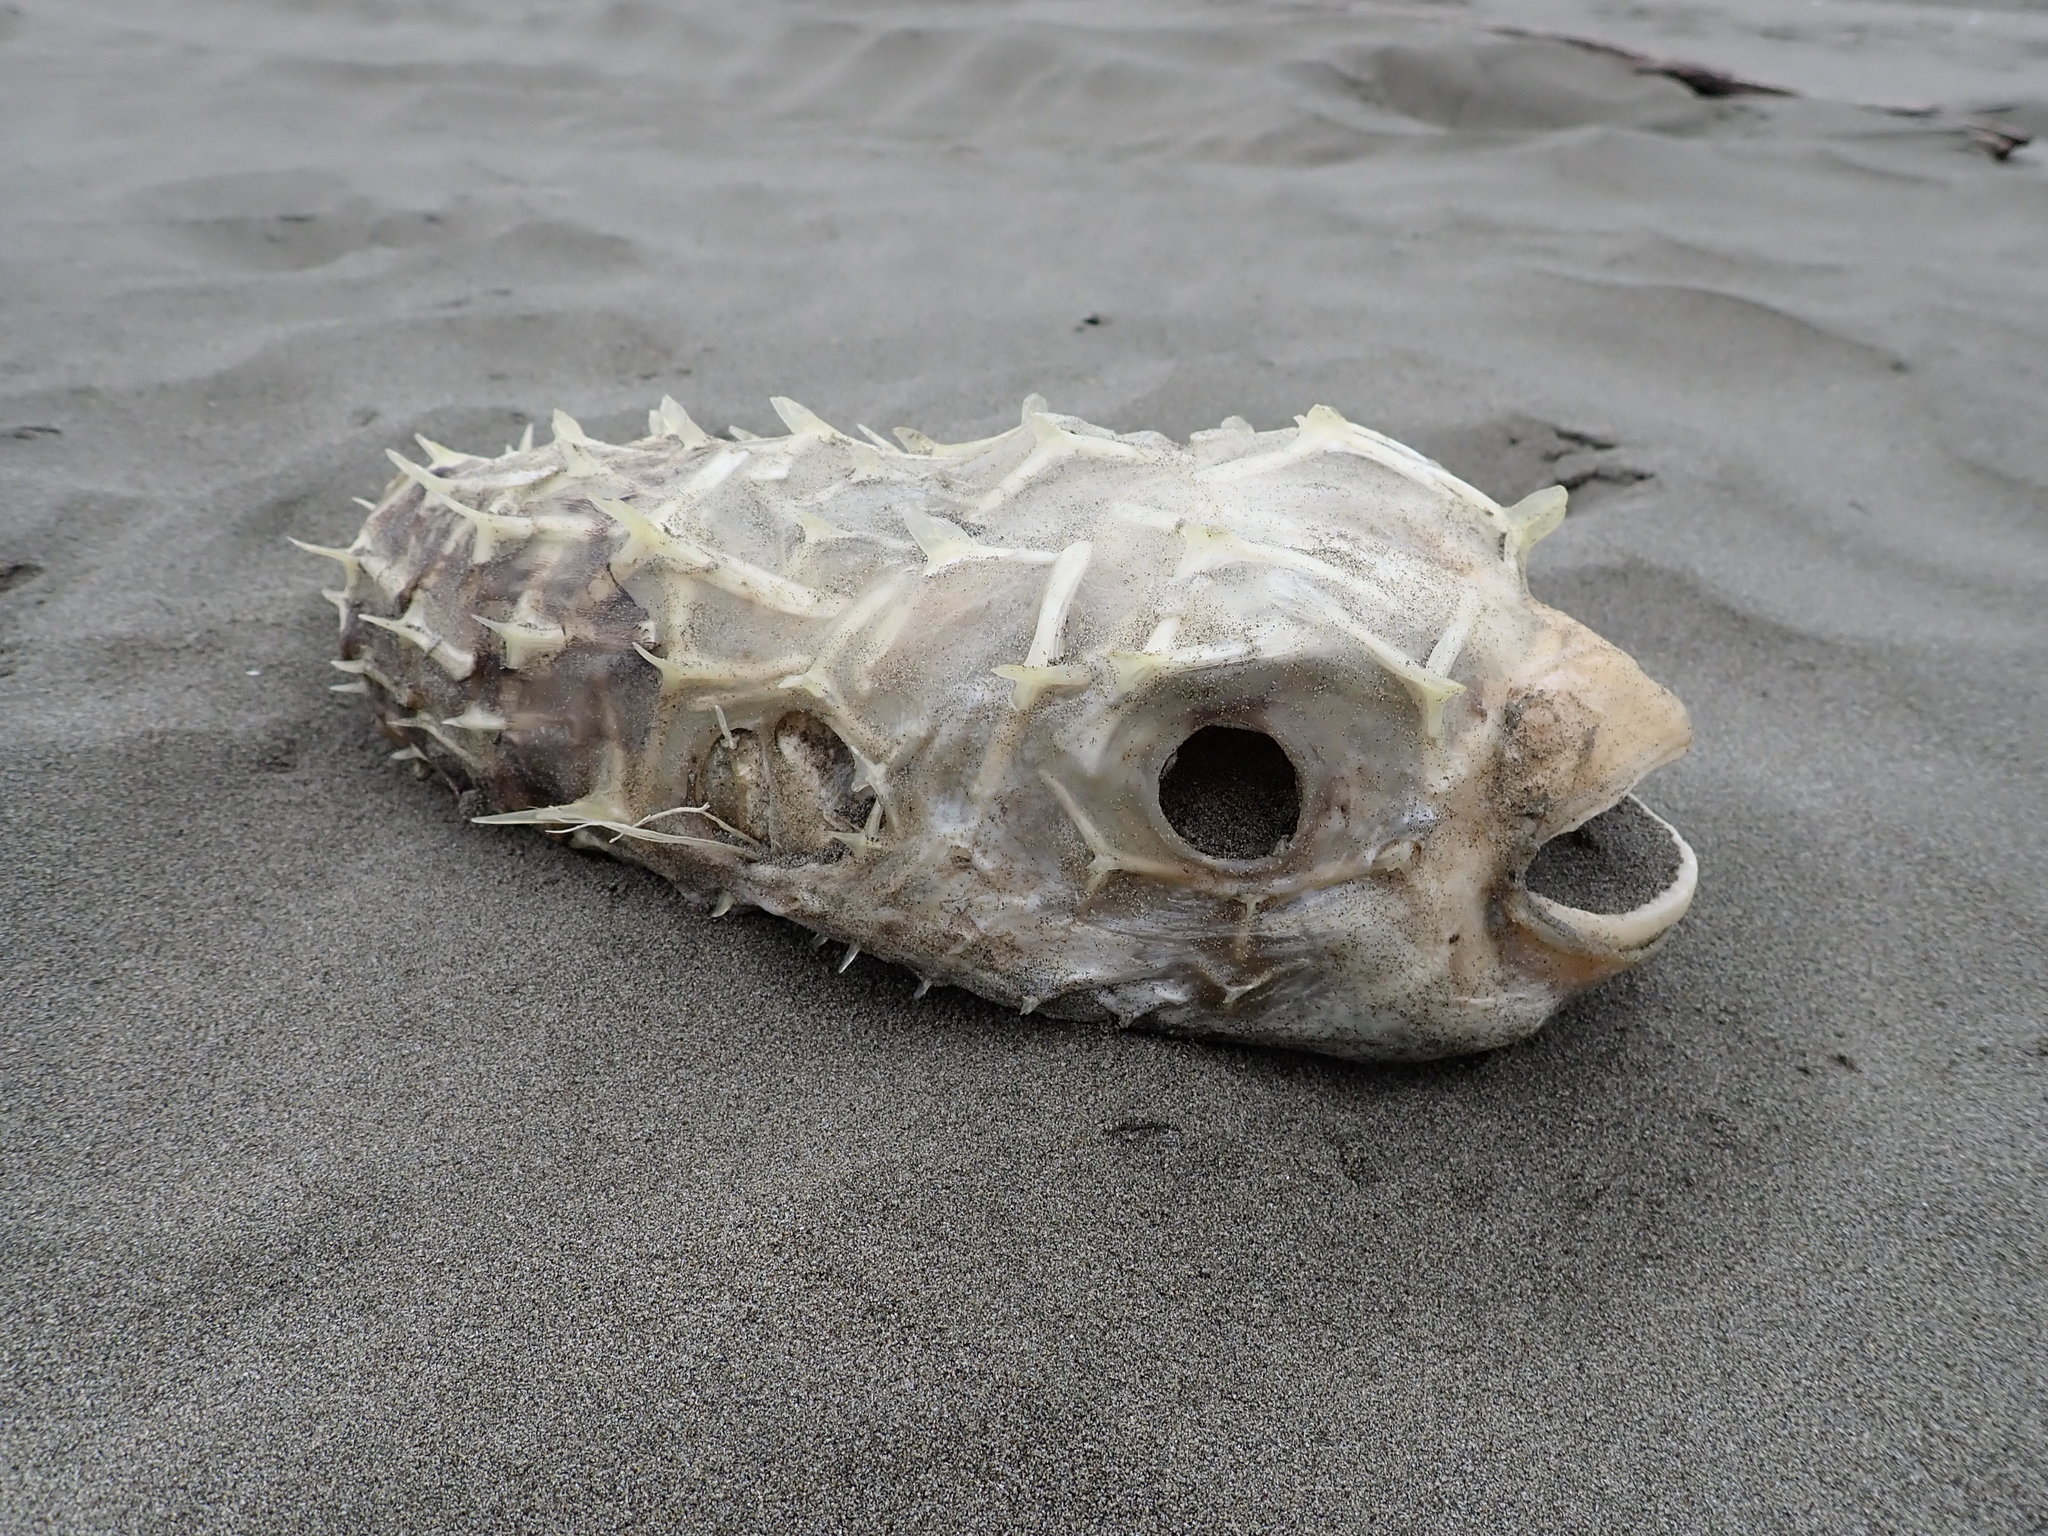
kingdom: Animalia
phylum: Chordata
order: Tetraodontiformes
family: Diodontidae
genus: Allomycterus
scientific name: Allomycterus pilatus
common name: No common name
